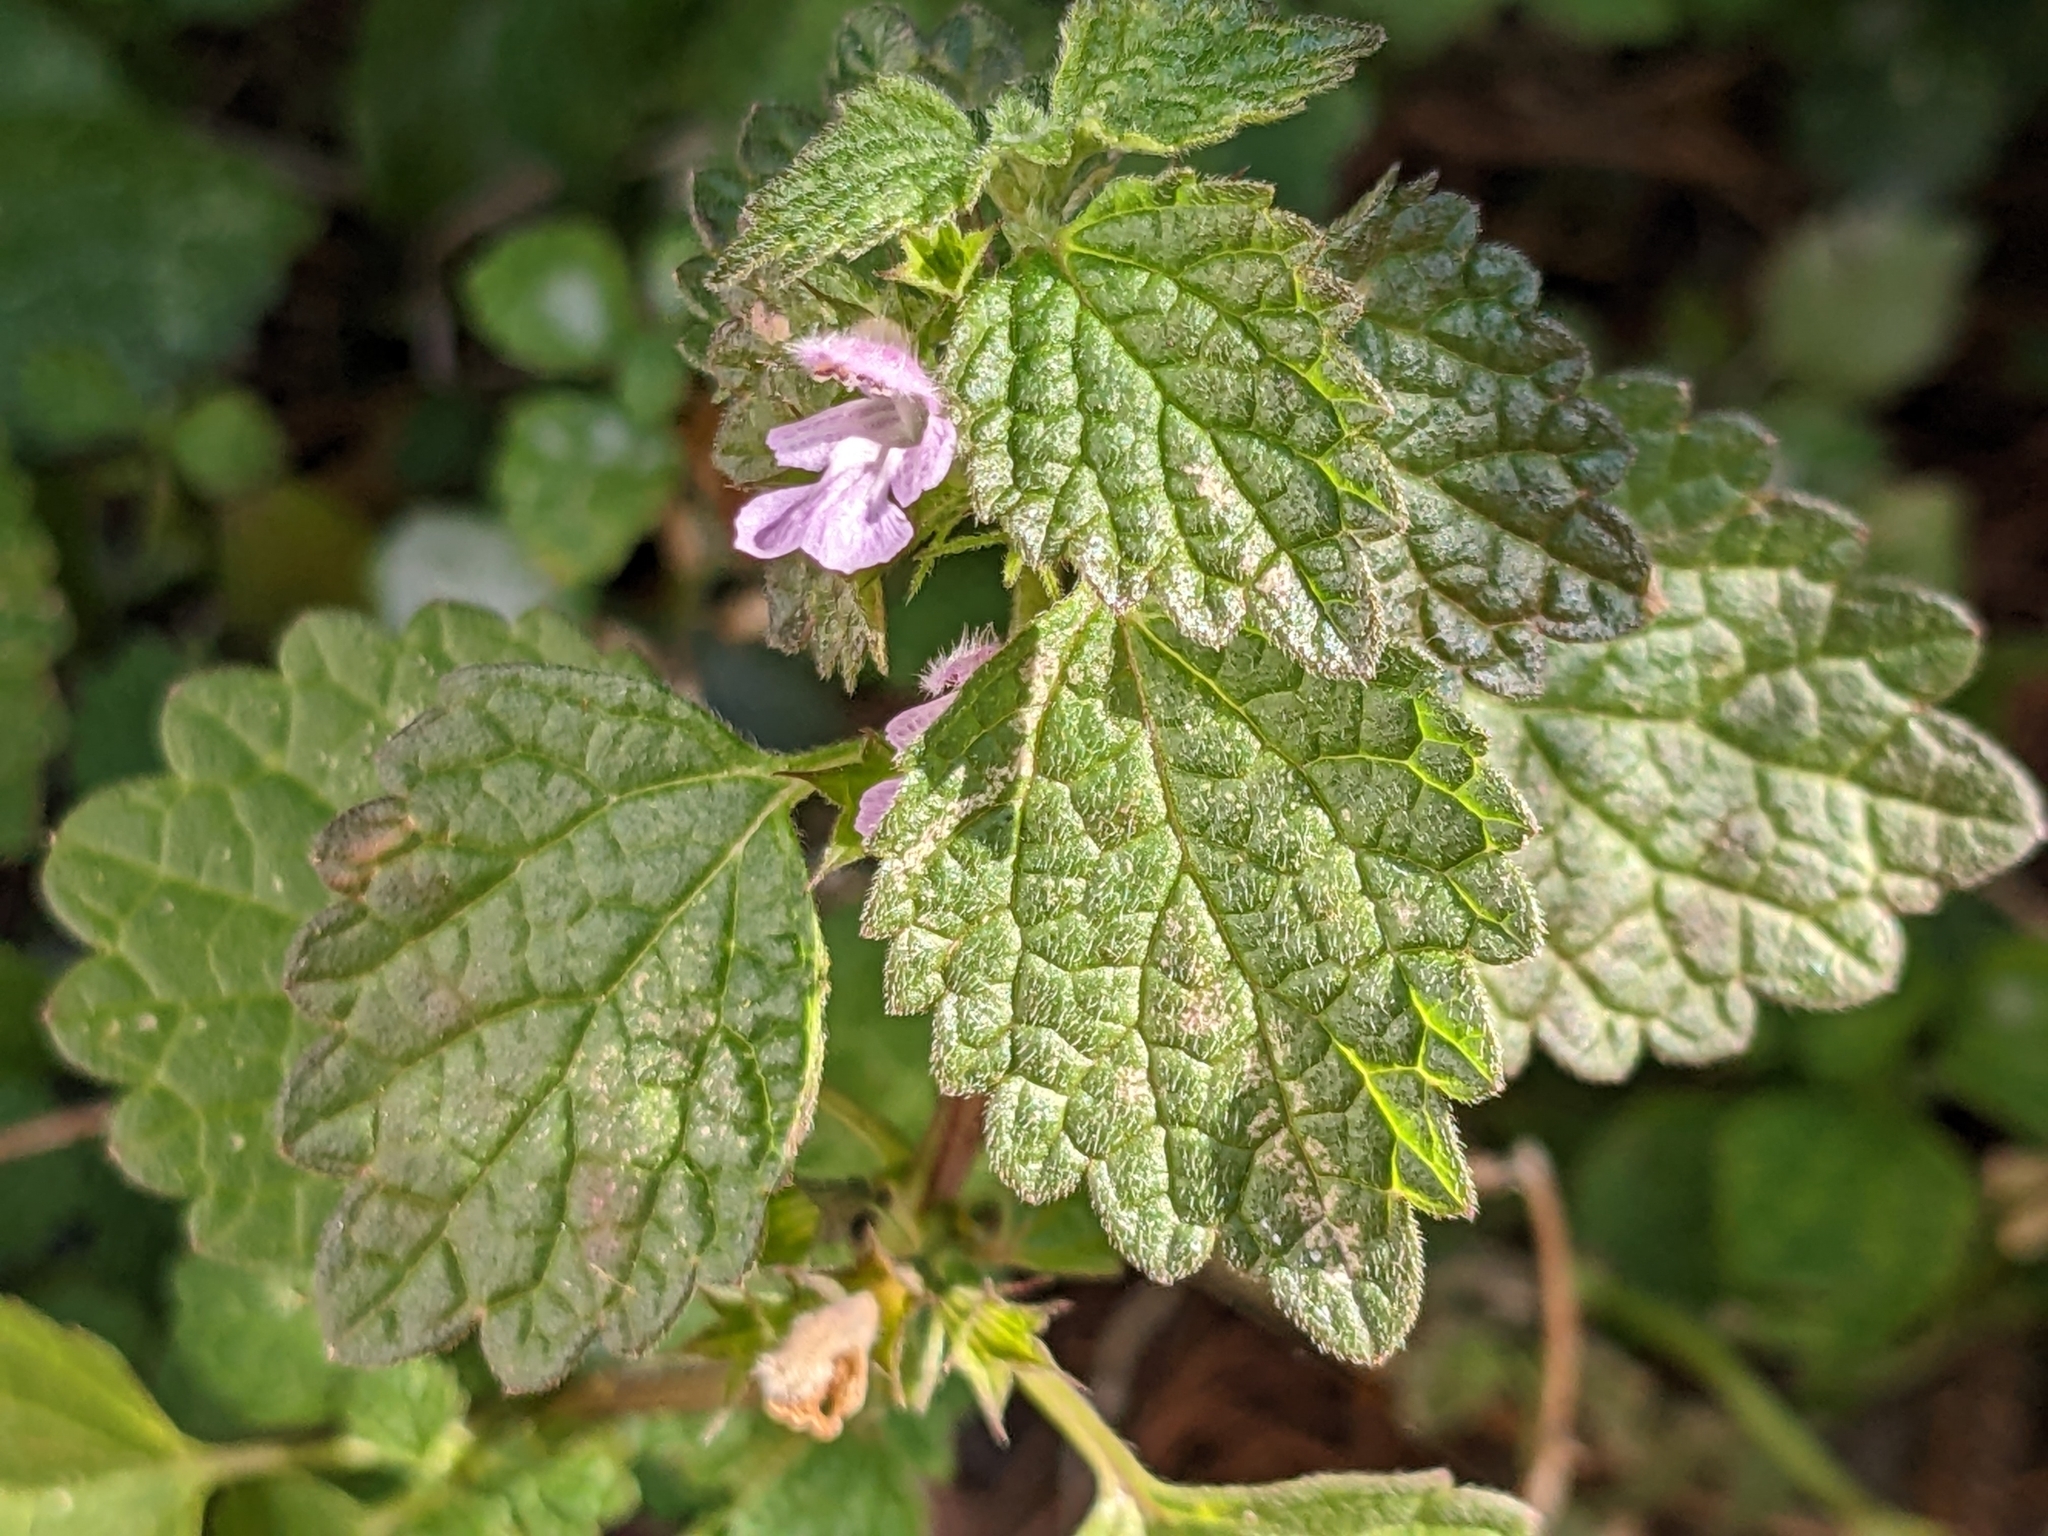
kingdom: Plantae
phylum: Tracheophyta
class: Magnoliopsida
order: Lamiales
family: Lamiaceae
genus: Ballota
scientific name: Ballota nigra
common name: Black horehound
